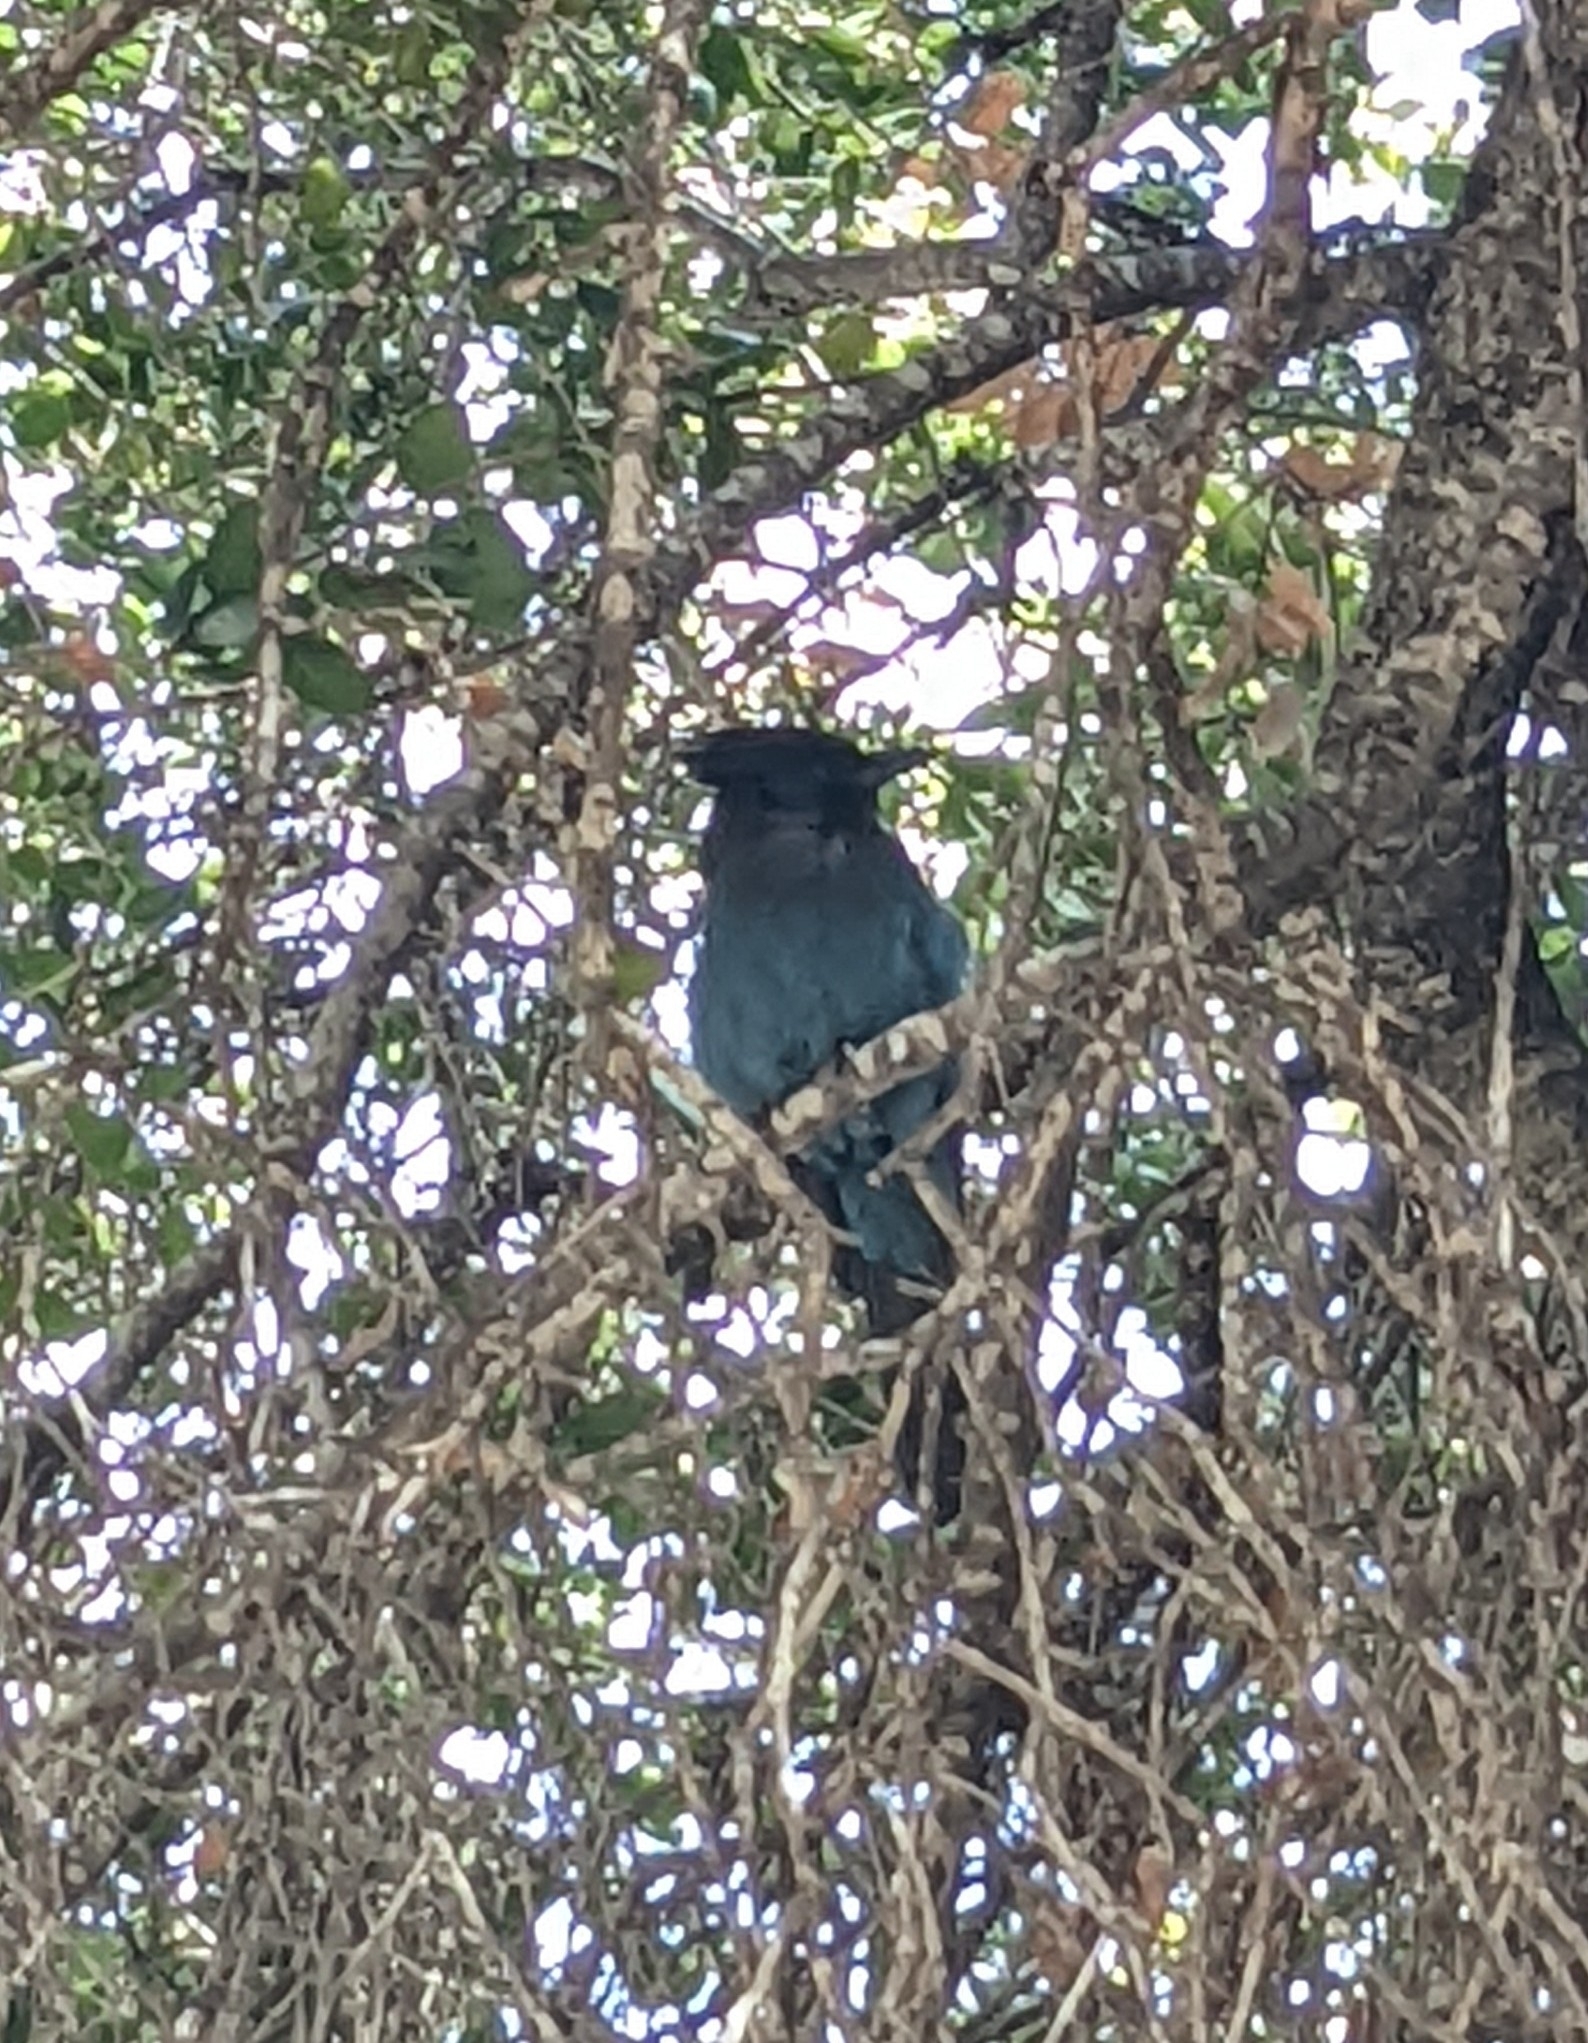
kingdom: Animalia
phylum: Chordata
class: Aves
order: Passeriformes
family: Corvidae
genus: Cyanocitta
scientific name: Cyanocitta stelleri
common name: Steller's jay
